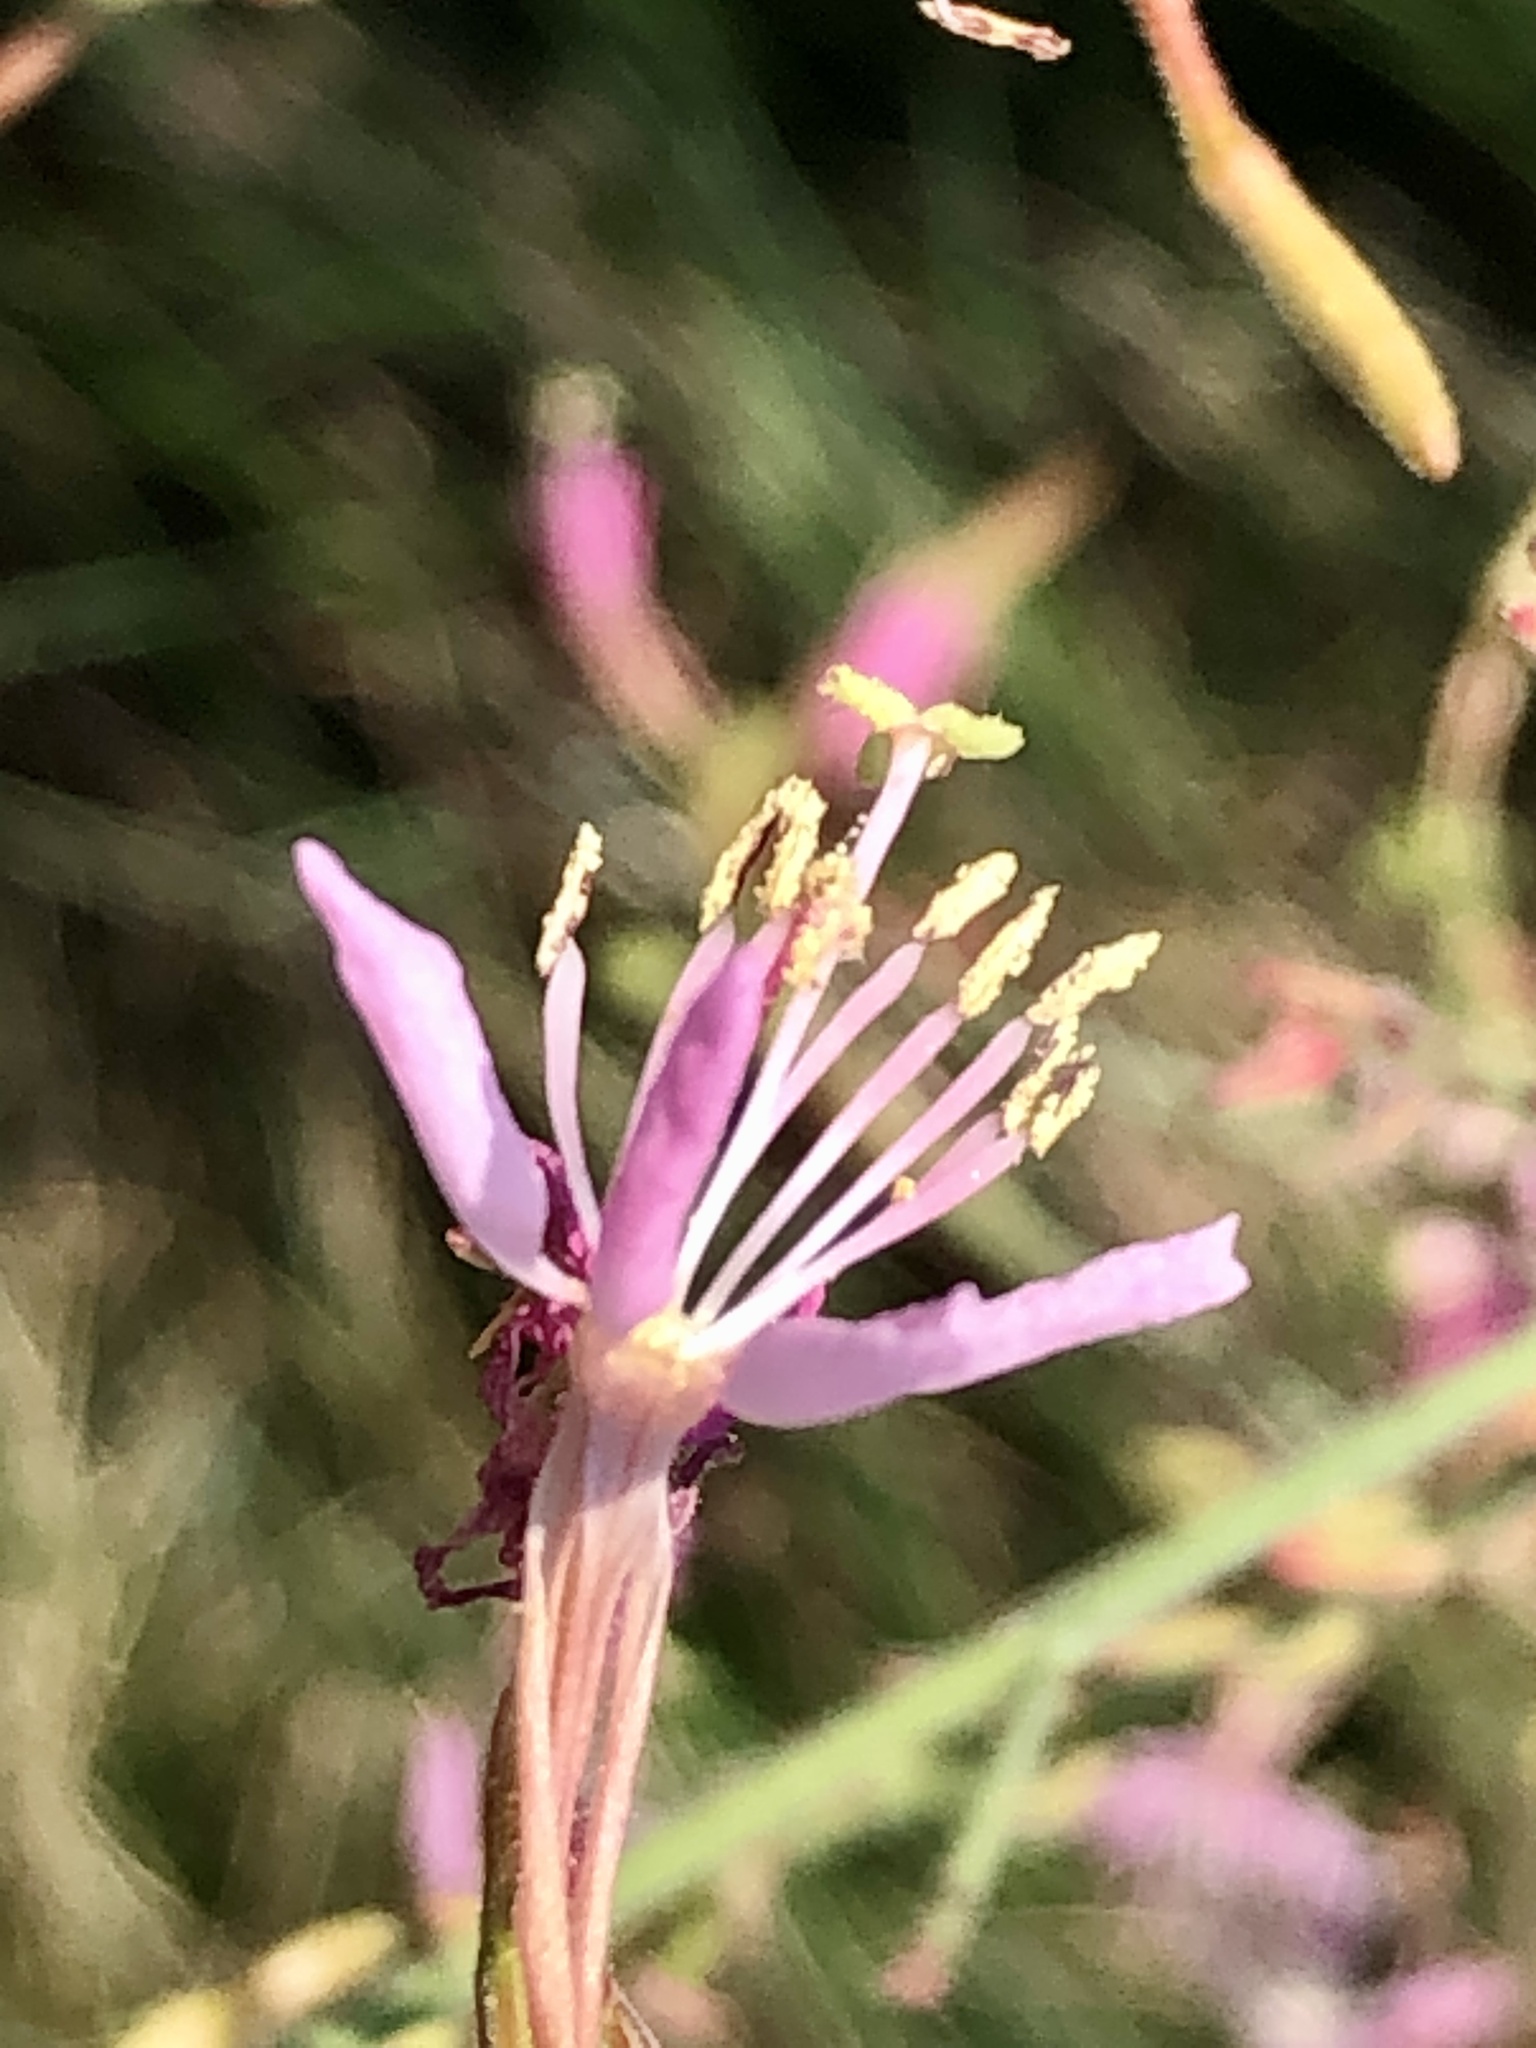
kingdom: Plantae
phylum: Tracheophyta
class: Magnoliopsida
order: Myrtales
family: Onagraceae
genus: Oenothera
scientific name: Oenothera gaura
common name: Biennial beeblossom
